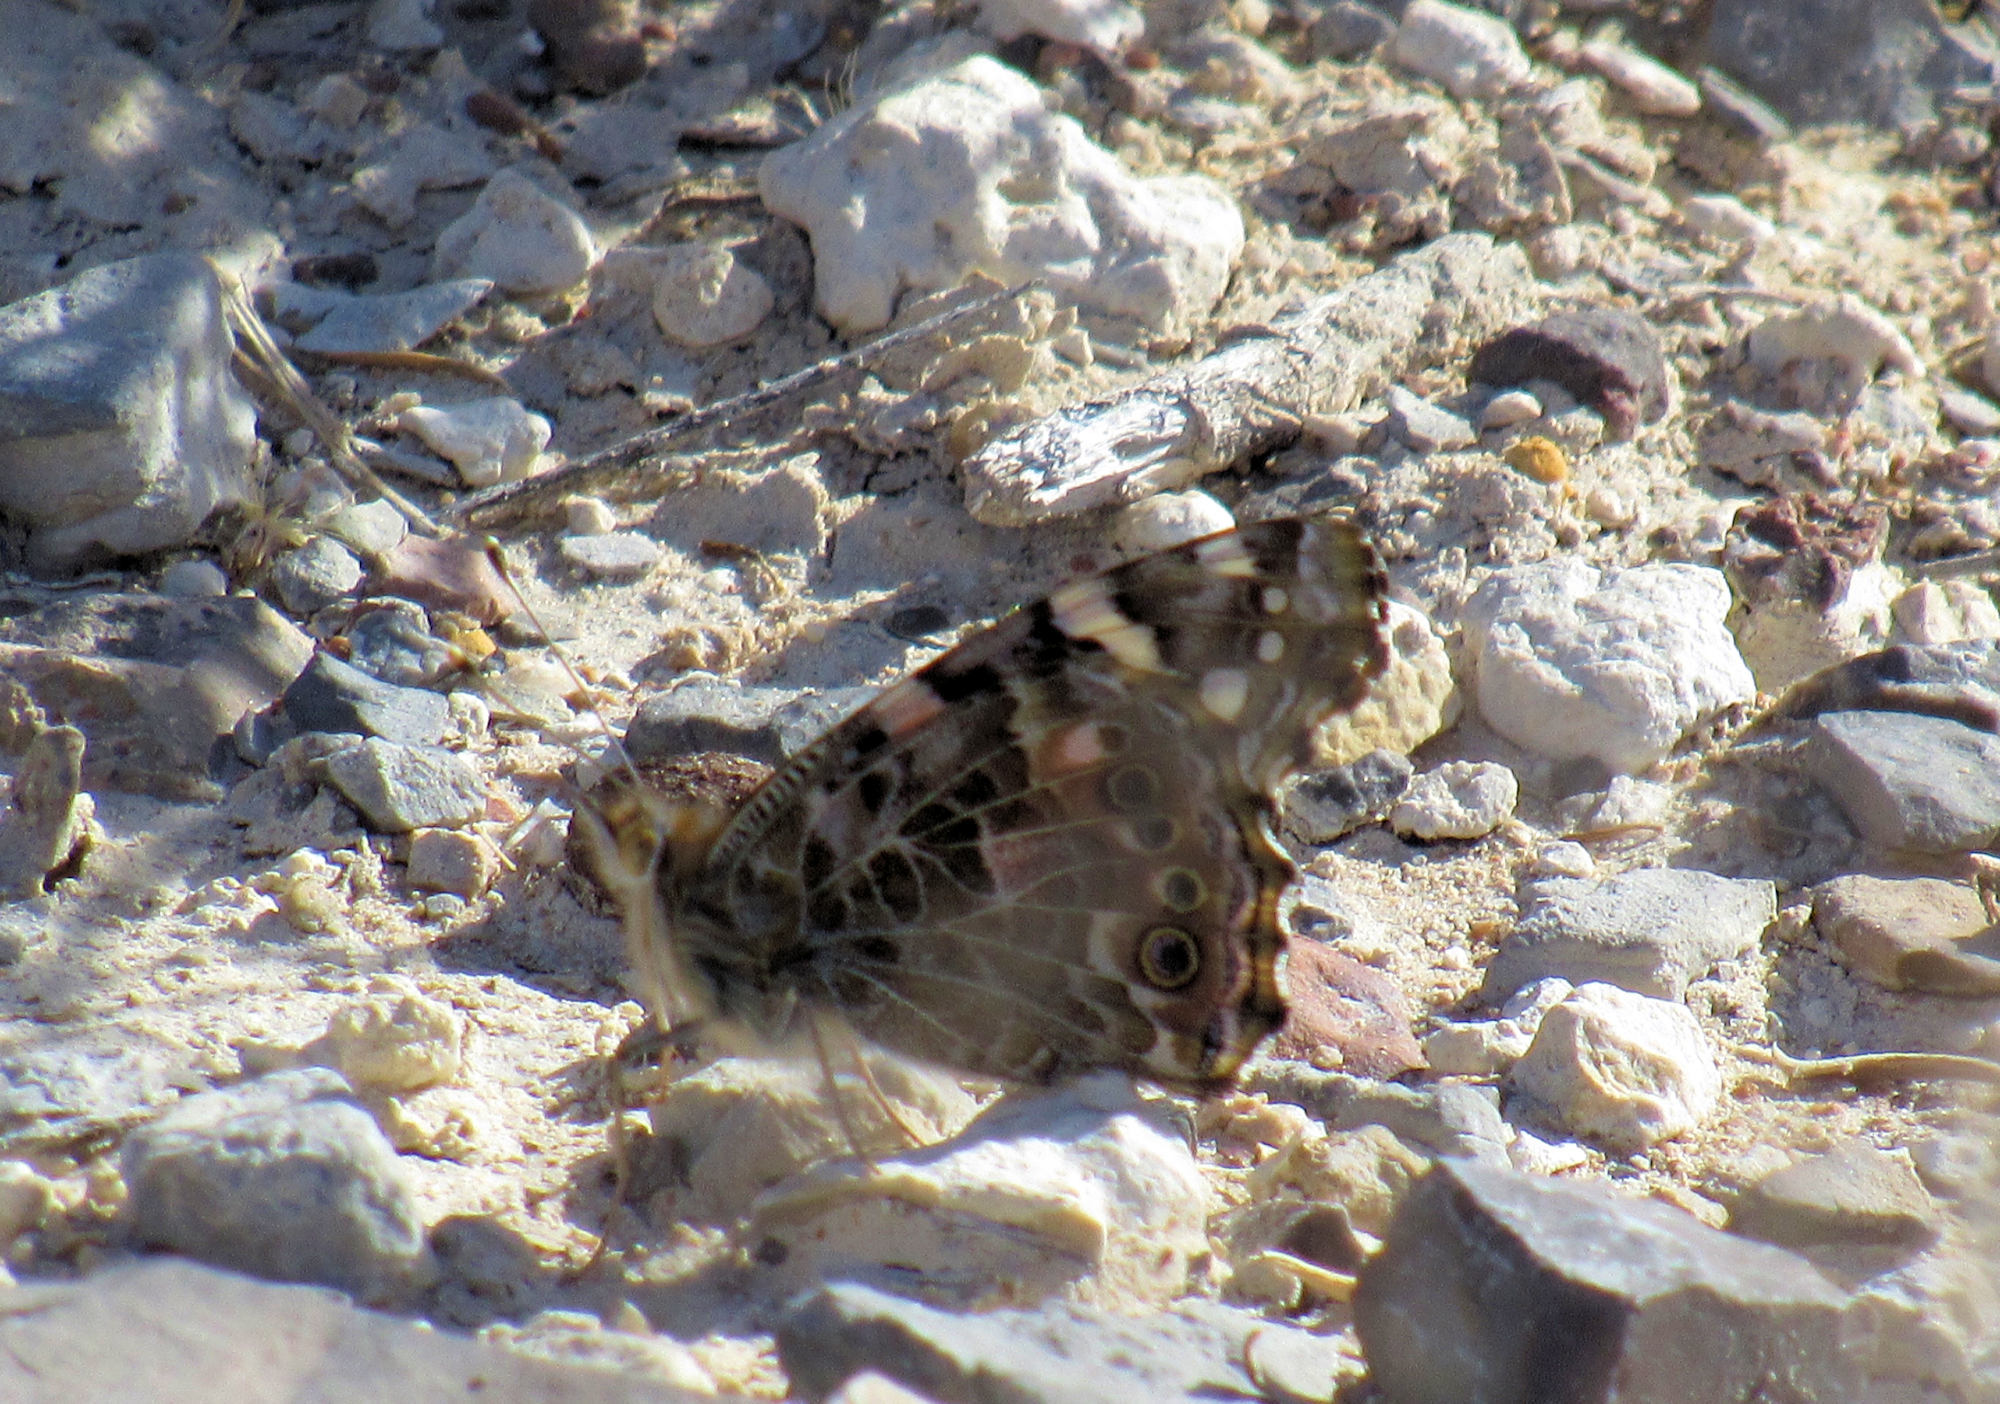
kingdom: Animalia
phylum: Arthropoda
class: Insecta
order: Lepidoptera
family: Nymphalidae
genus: Vanessa
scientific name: Vanessa cardui
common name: Painted lady
